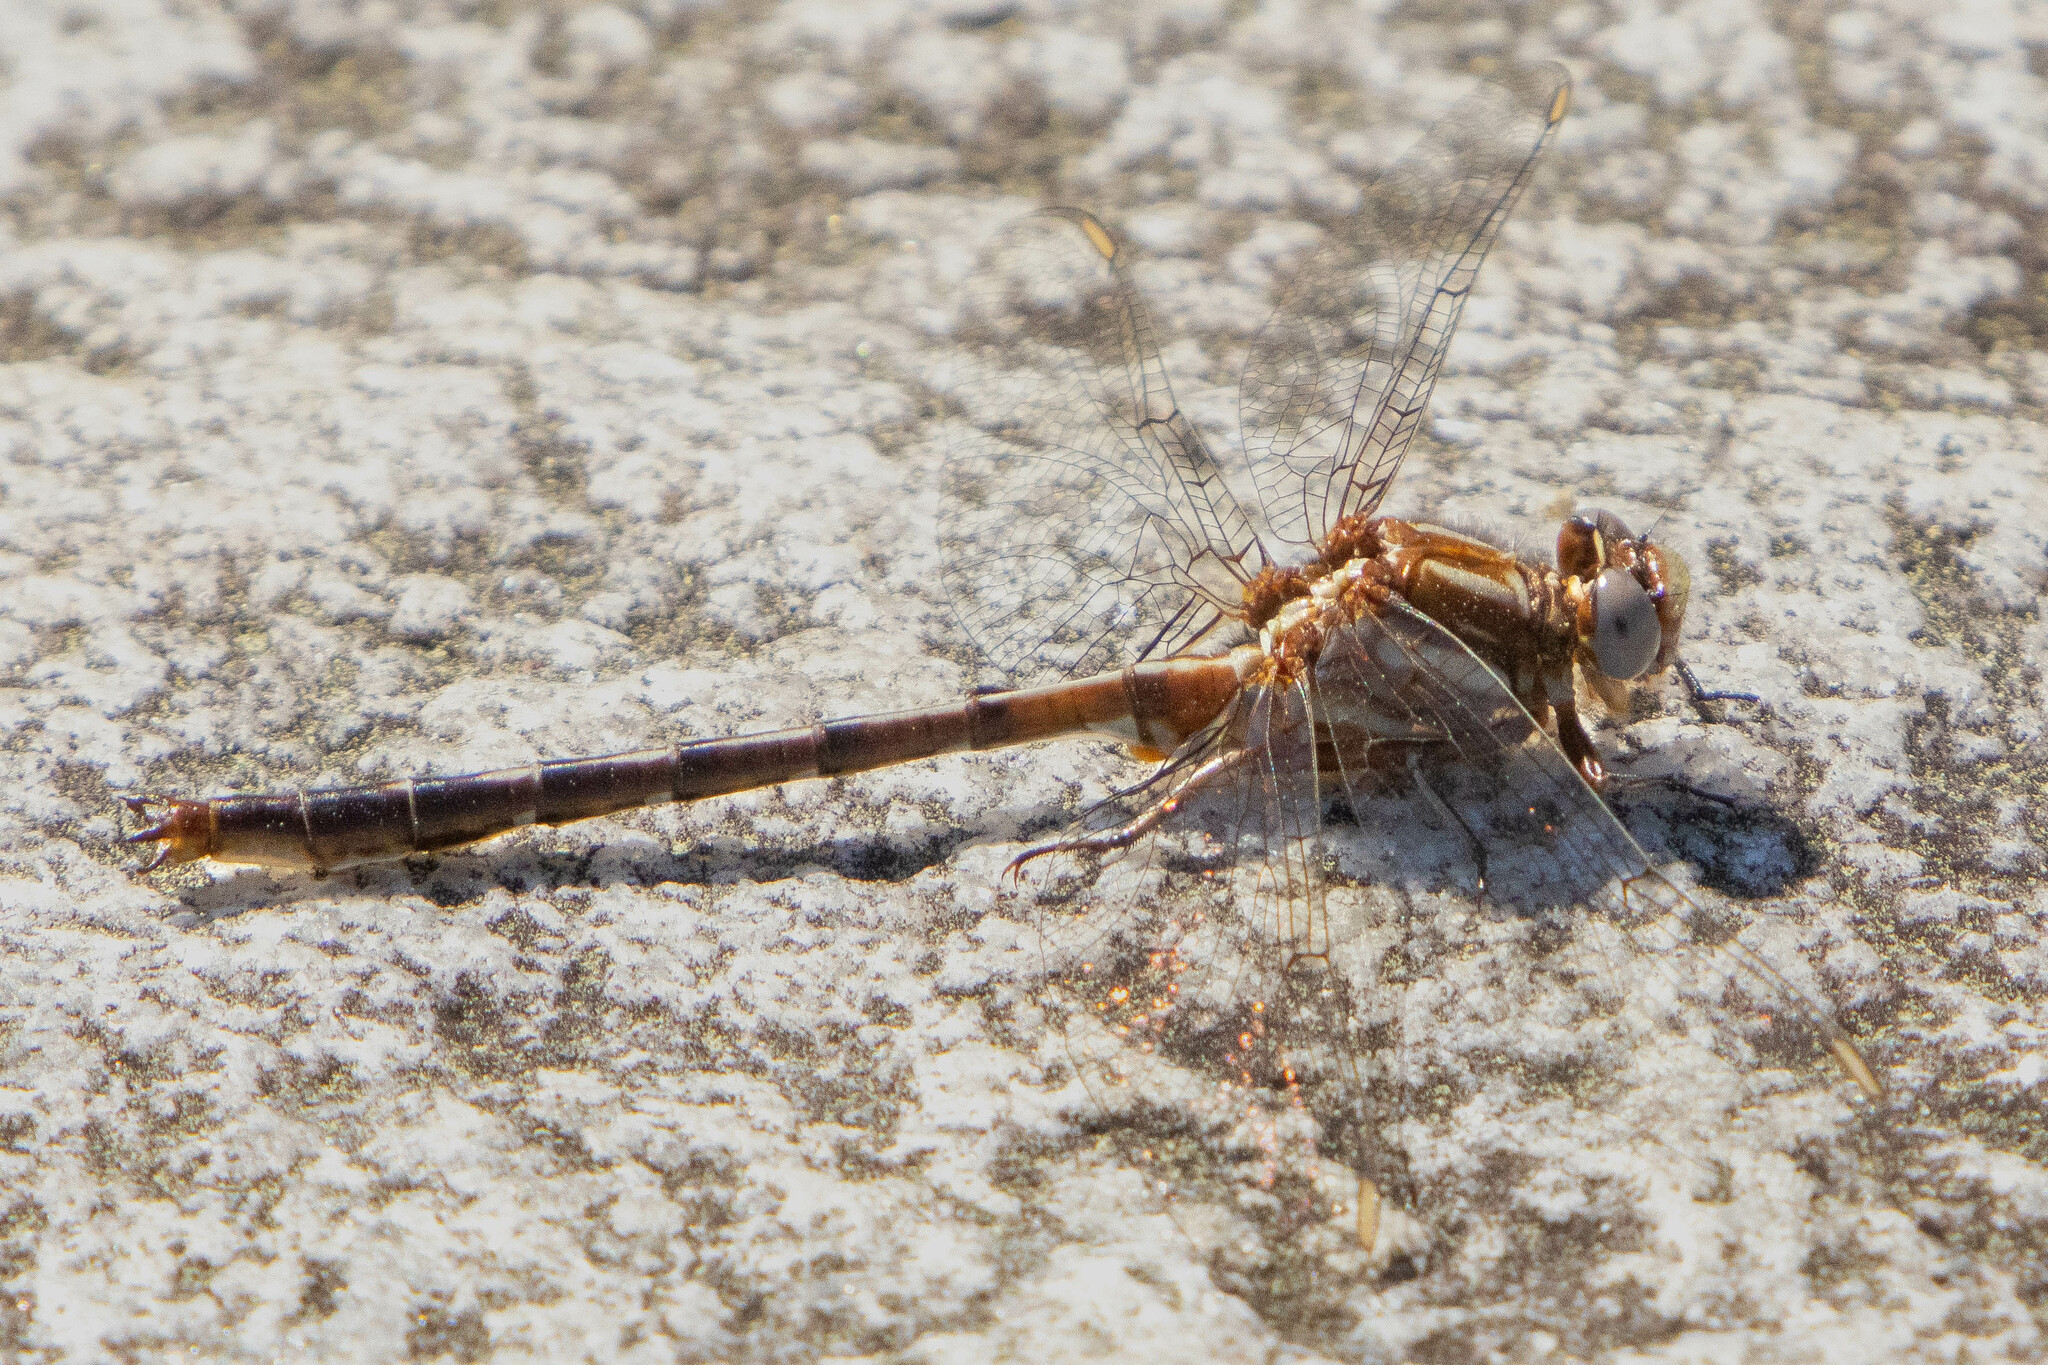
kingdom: Animalia
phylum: Arthropoda
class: Insecta
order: Odonata
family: Gomphidae
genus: Phanogomphus
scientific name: Phanogomphus lividus
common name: Ashy clubtail
